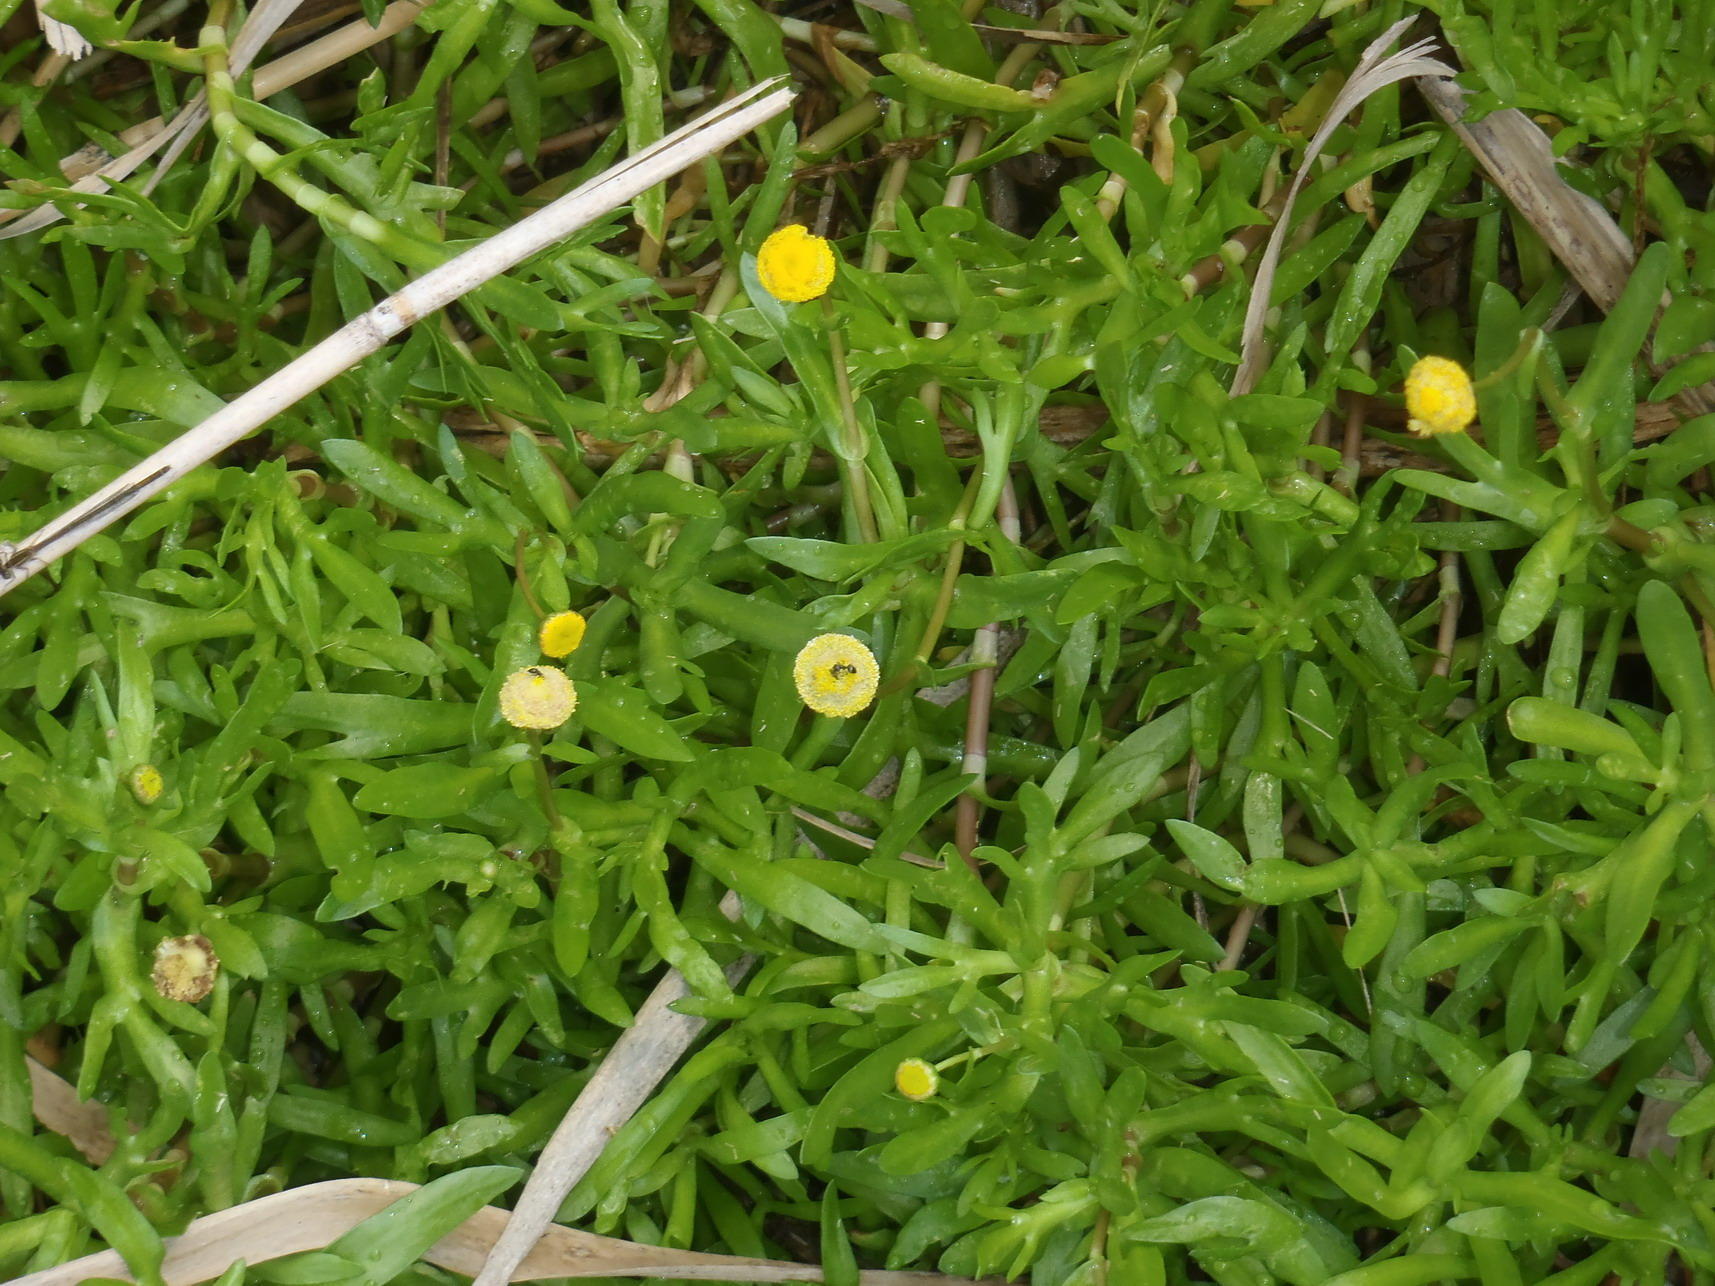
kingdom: Plantae
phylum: Tracheophyta
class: Magnoliopsida
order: Asterales
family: Asteraceae
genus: Cotula
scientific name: Cotula coronopifolia
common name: Buttonweed
